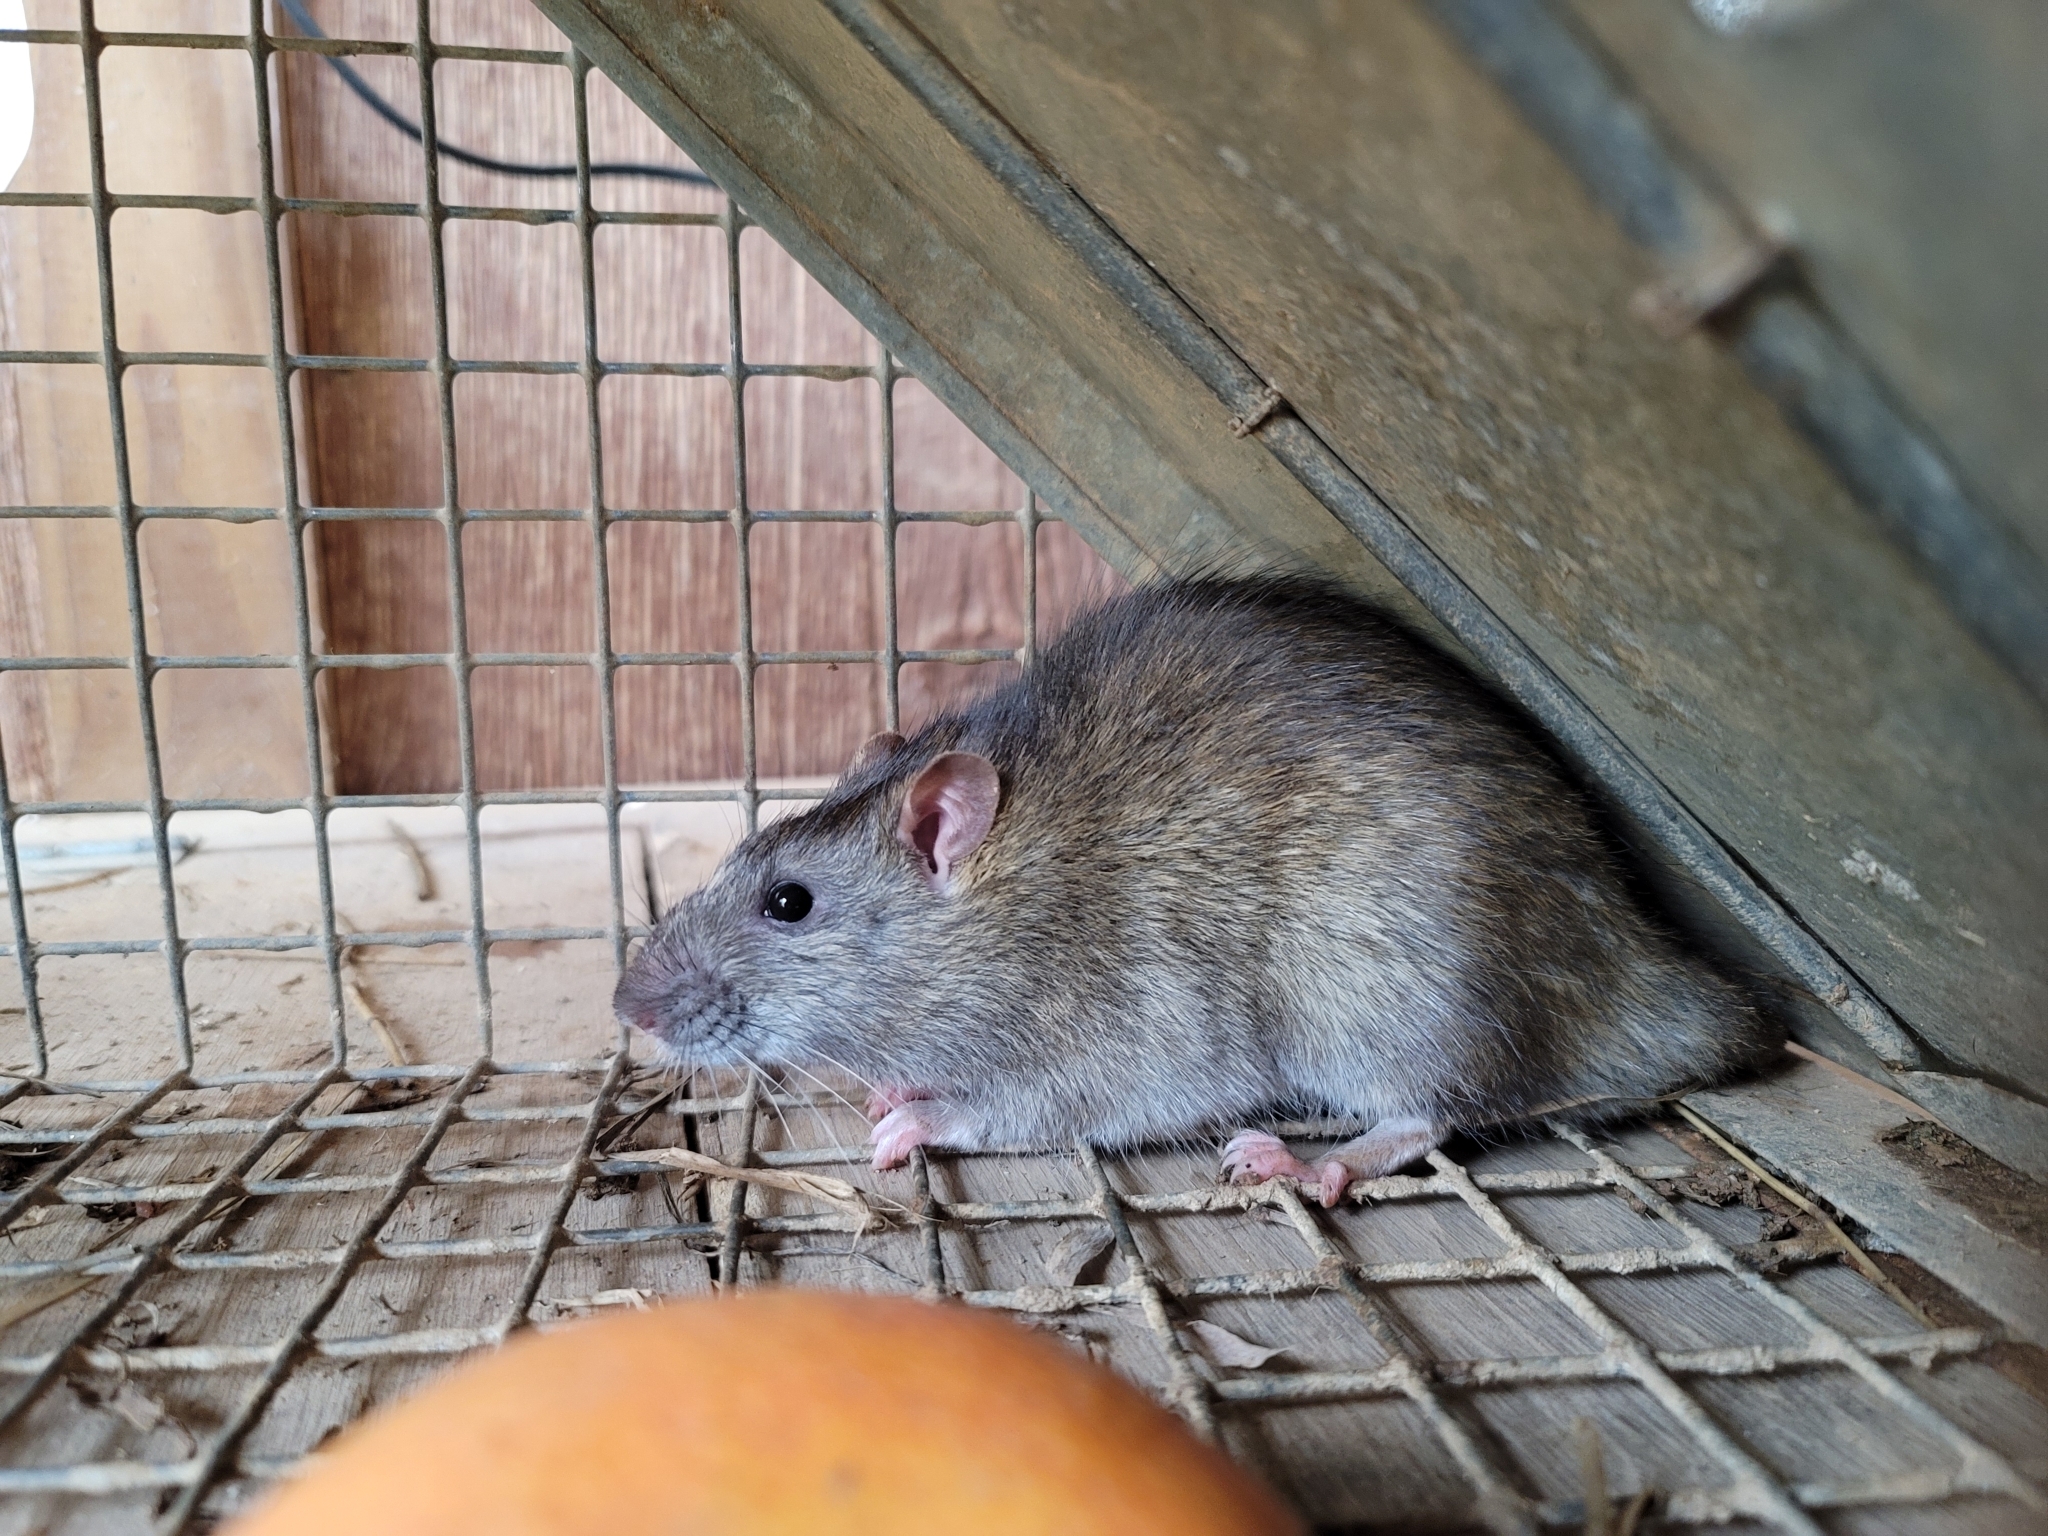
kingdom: Animalia
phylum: Chordata
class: Mammalia
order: Rodentia
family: Muridae
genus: Rattus
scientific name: Rattus norvegicus
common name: Brown rat
